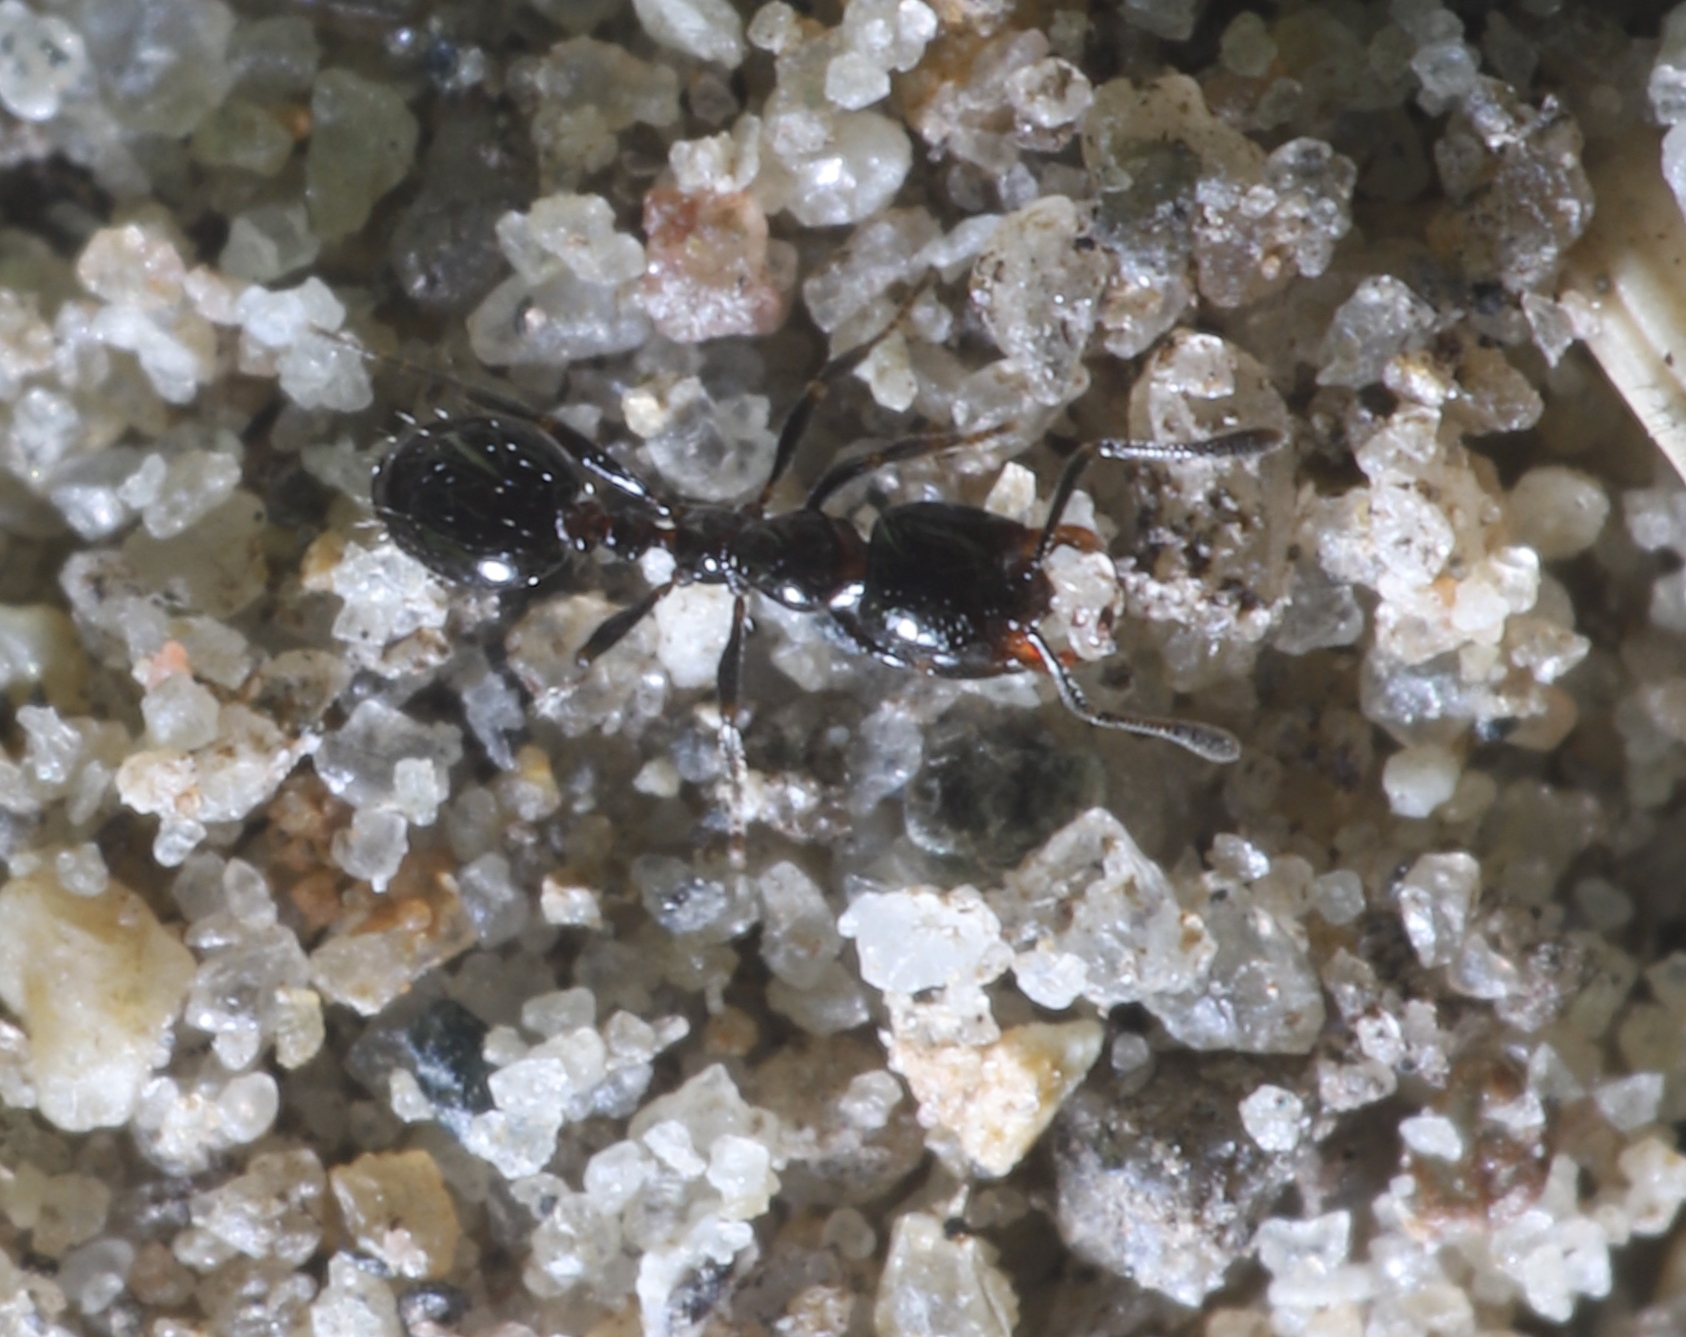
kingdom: Animalia
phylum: Arthropoda
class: Insecta
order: Hymenoptera
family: Formicidae
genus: Monomorium
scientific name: Monomorium
